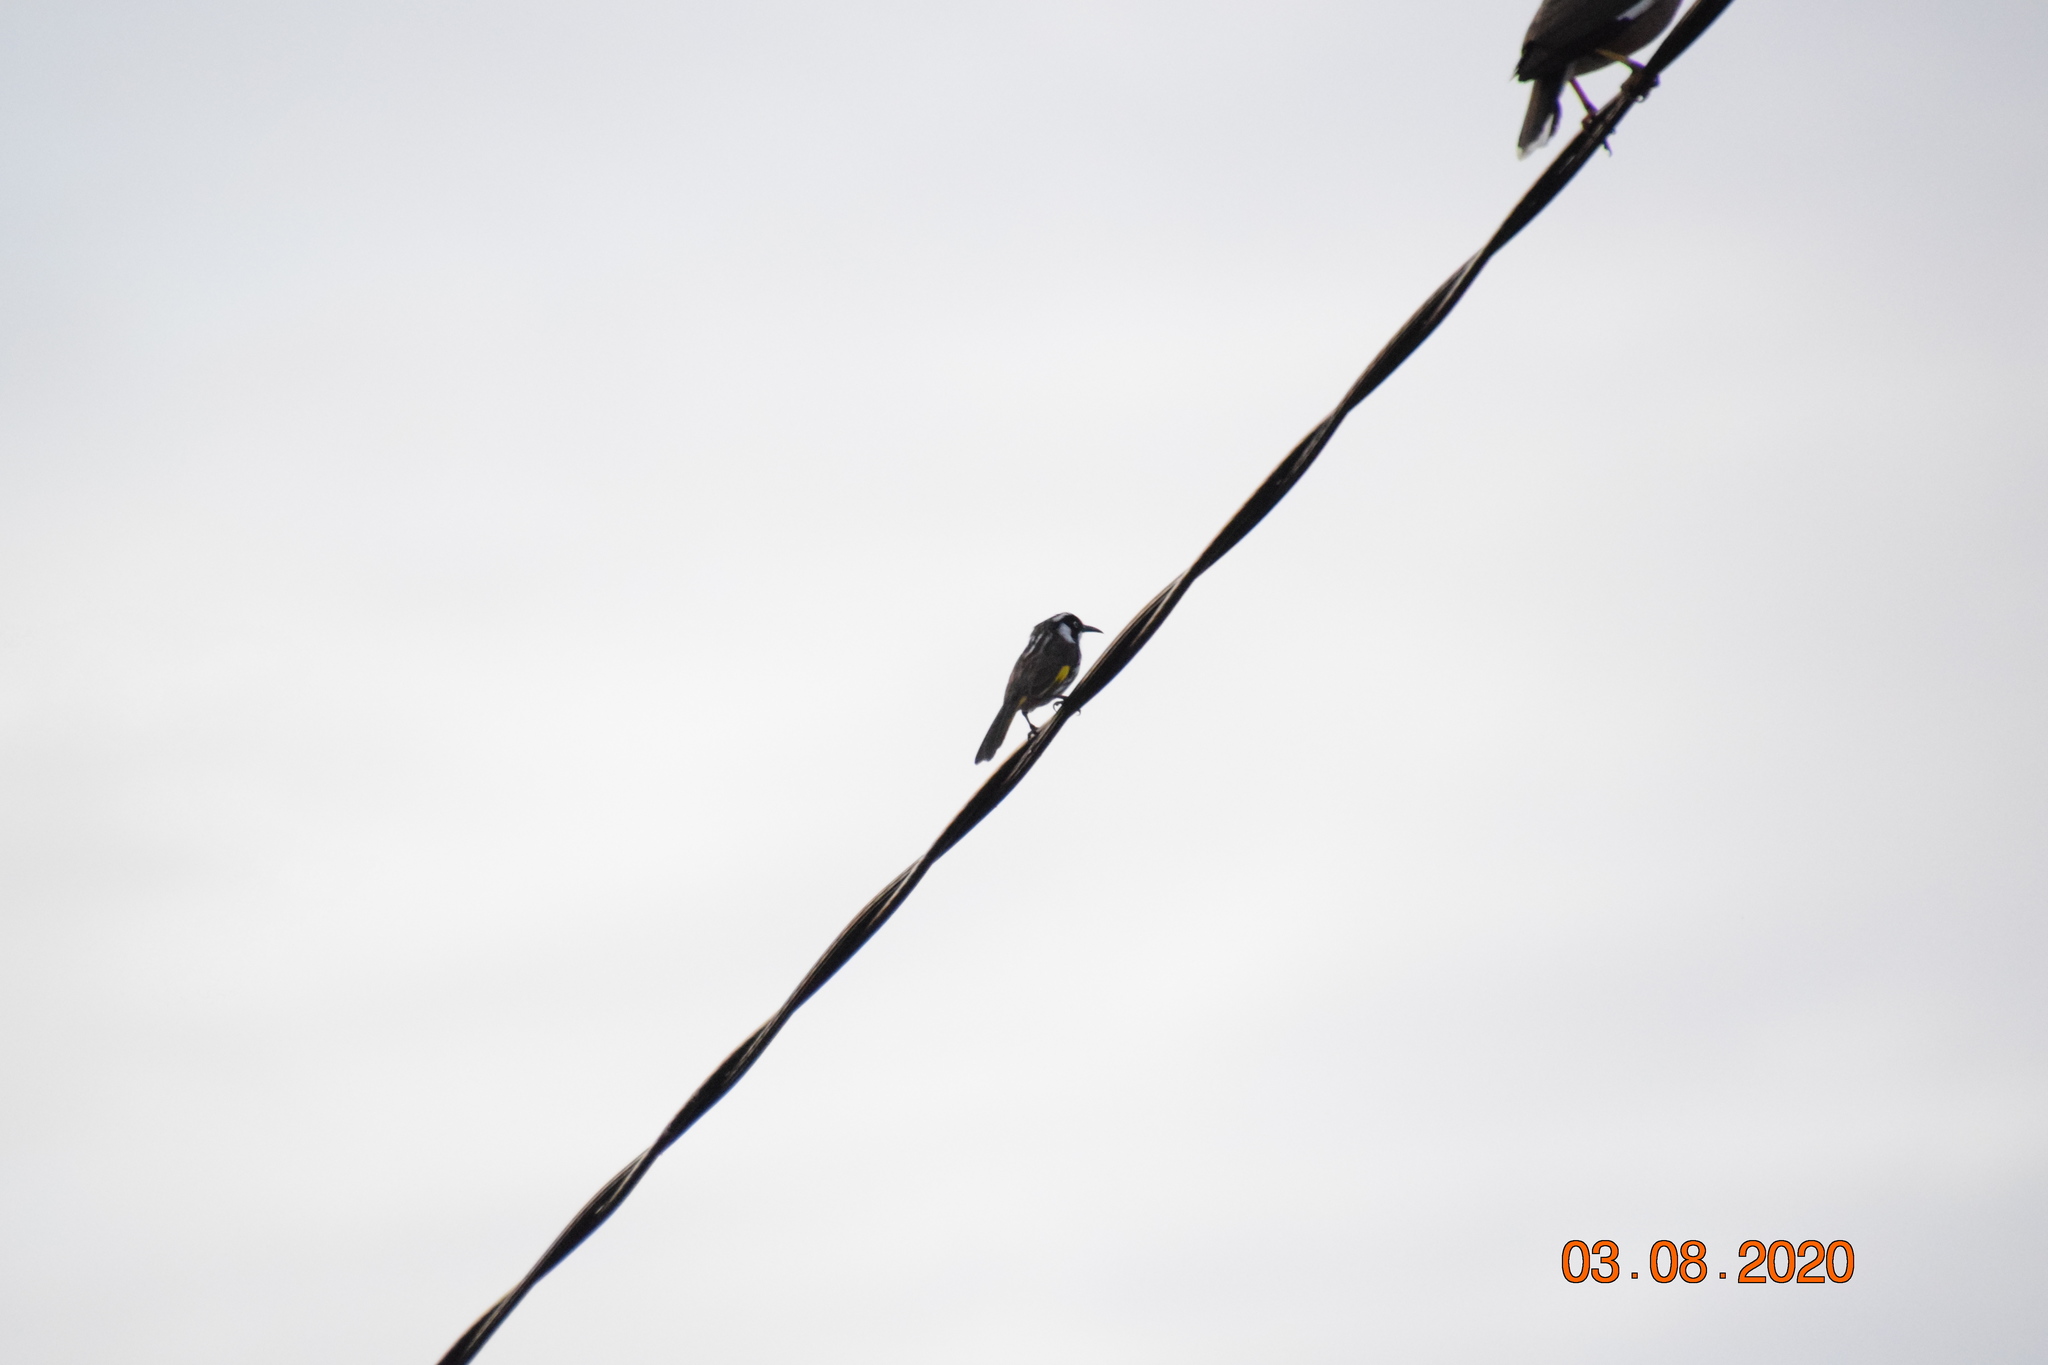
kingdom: Animalia
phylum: Chordata
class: Aves
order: Passeriformes
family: Meliphagidae
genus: Phylidonyris
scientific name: Phylidonyris novaehollandiae
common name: New holland honeyeater
